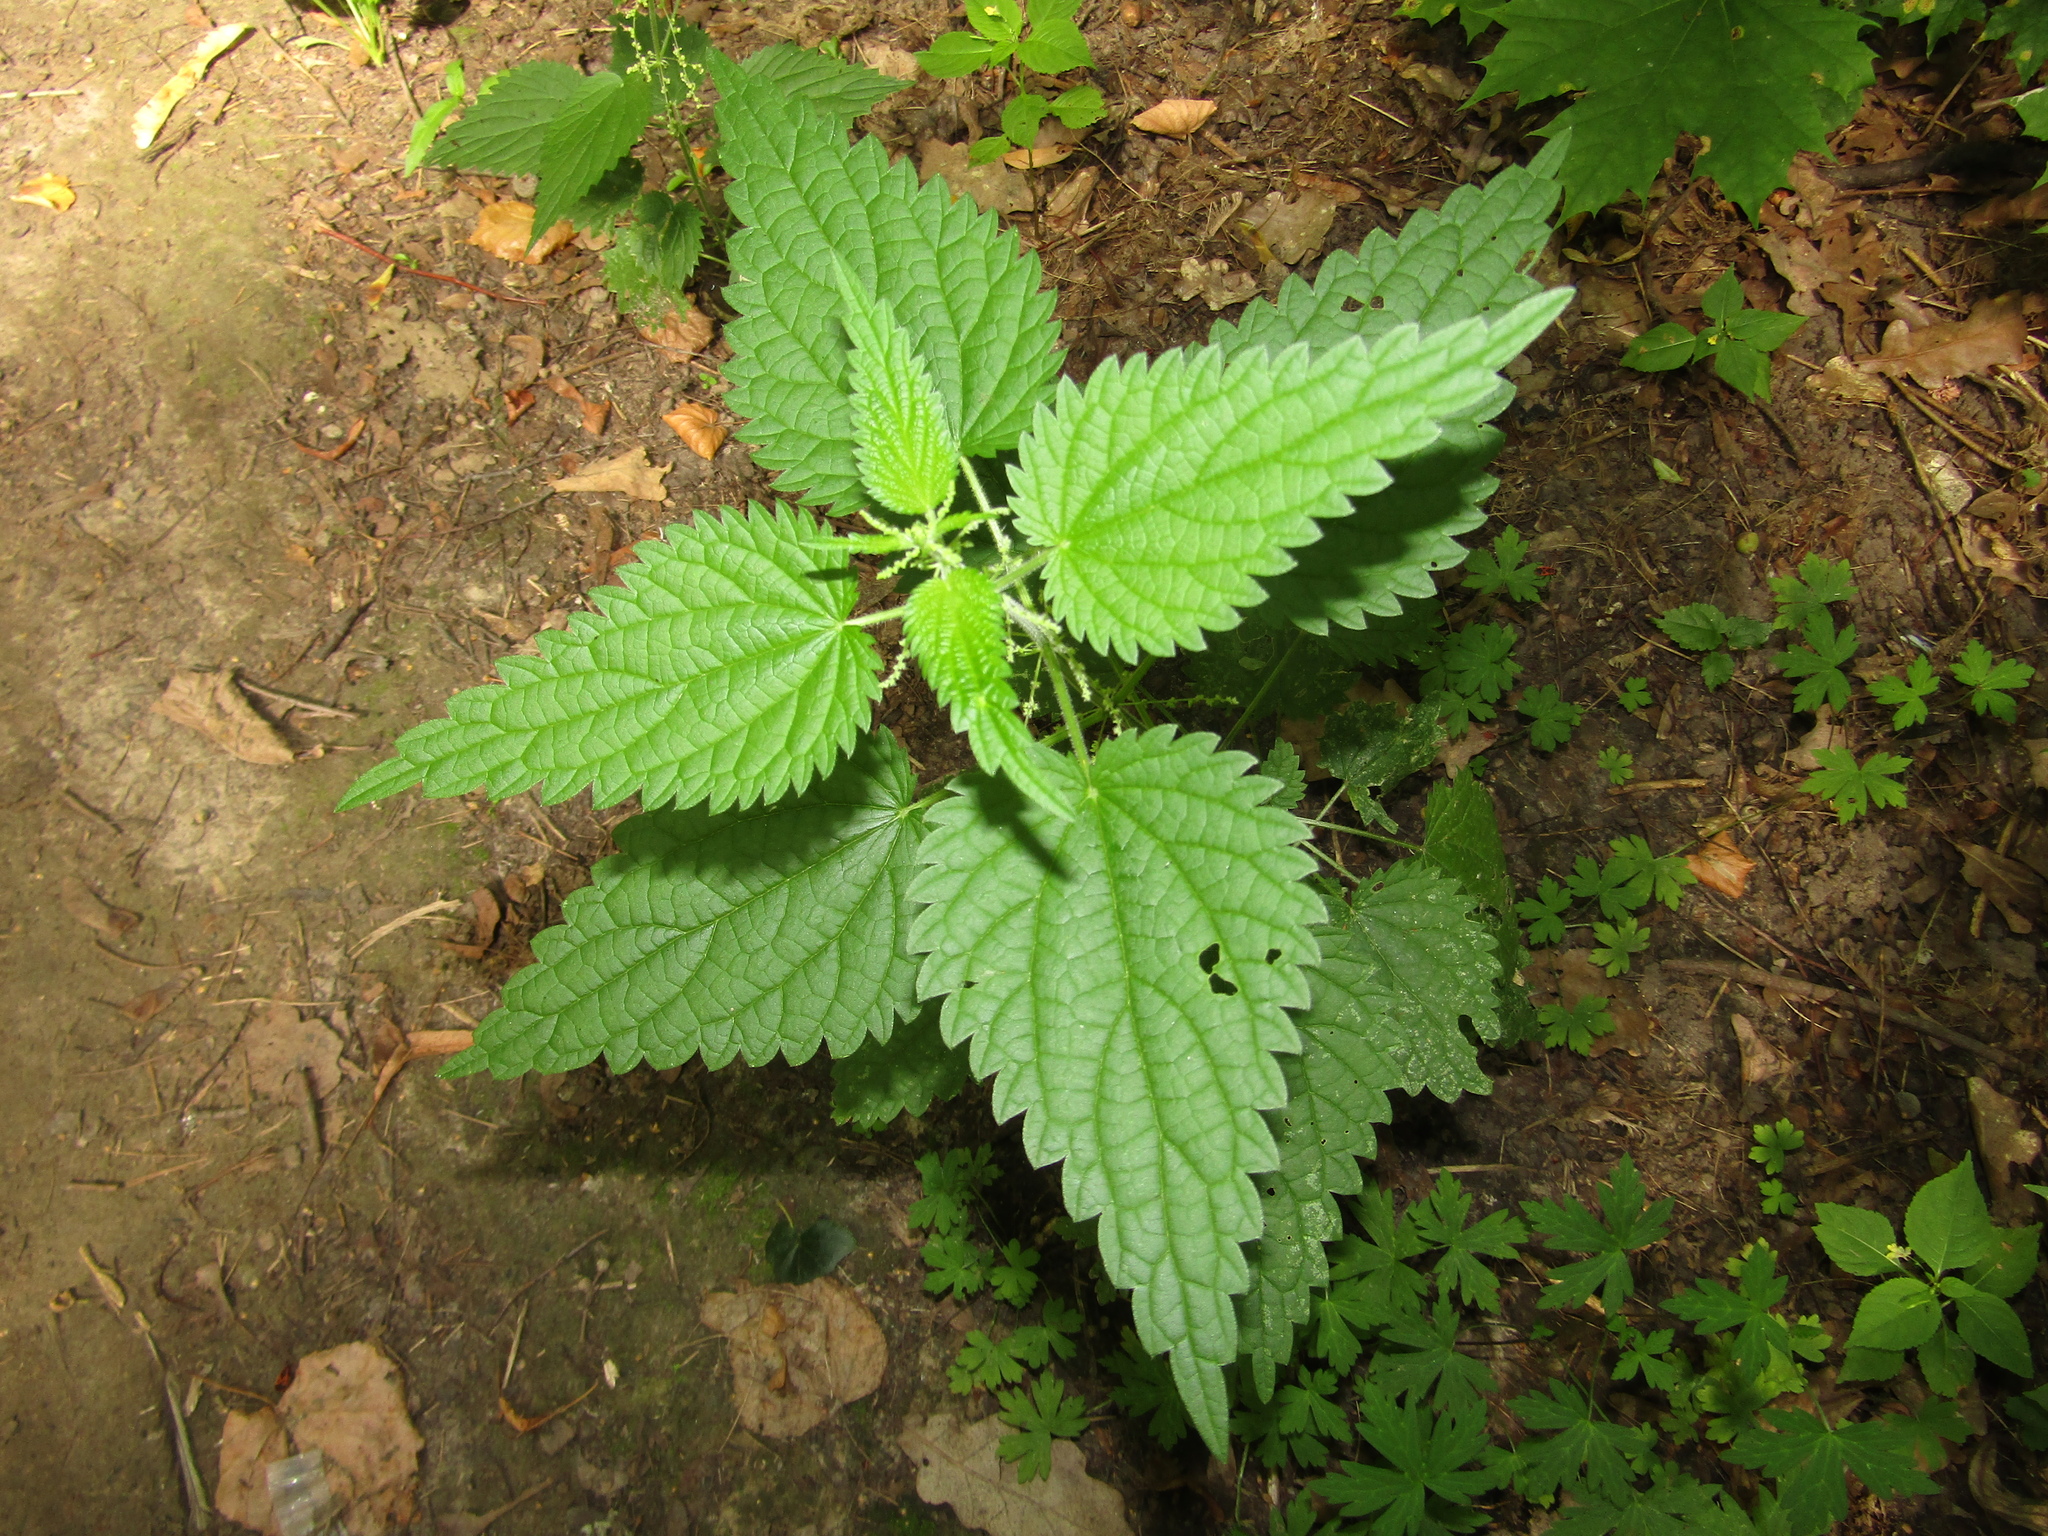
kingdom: Plantae
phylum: Tracheophyta
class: Magnoliopsida
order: Rosales
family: Urticaceae
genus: Urtica
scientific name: Urtica dioica
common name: Common nettle
